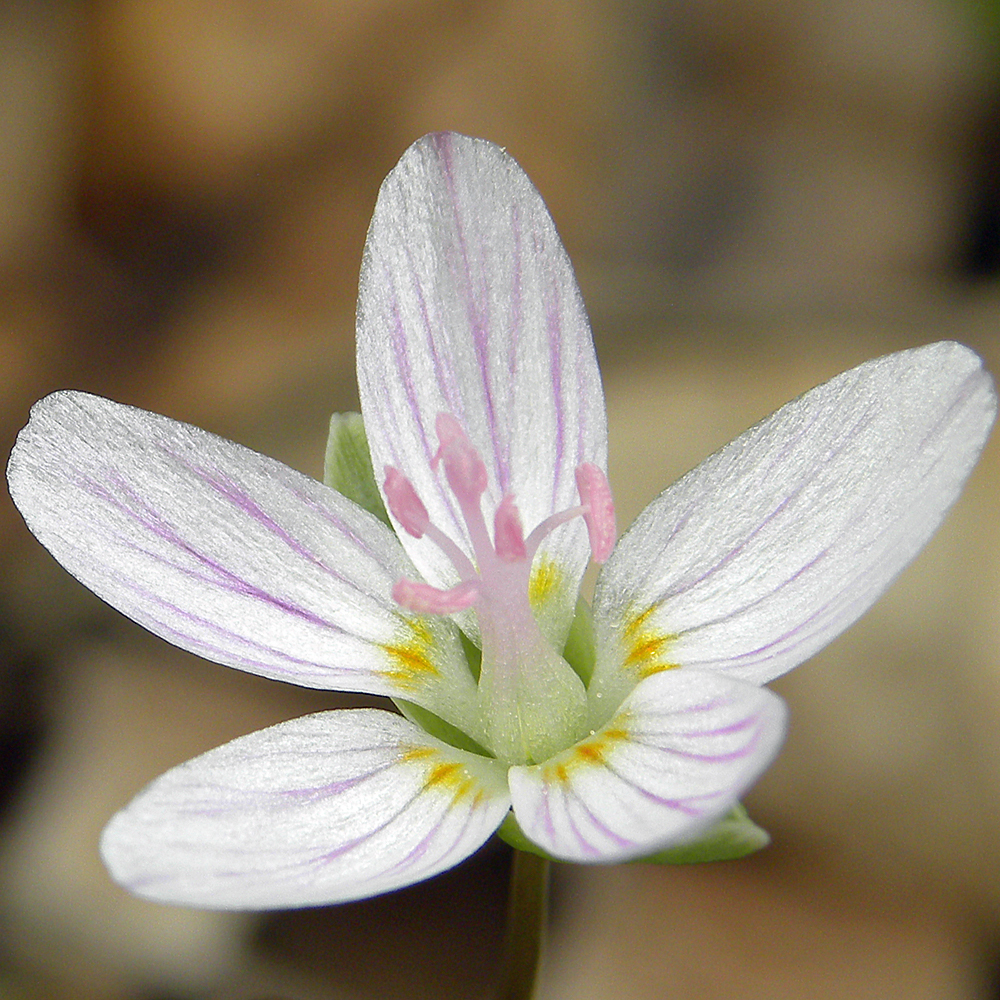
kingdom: Plantae
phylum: Tracheophyta
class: Magnoliopsida
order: Caryophyllales
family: Montiaceae
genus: Claytonia
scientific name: Claytonia virginica
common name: Virginia springbeauty
